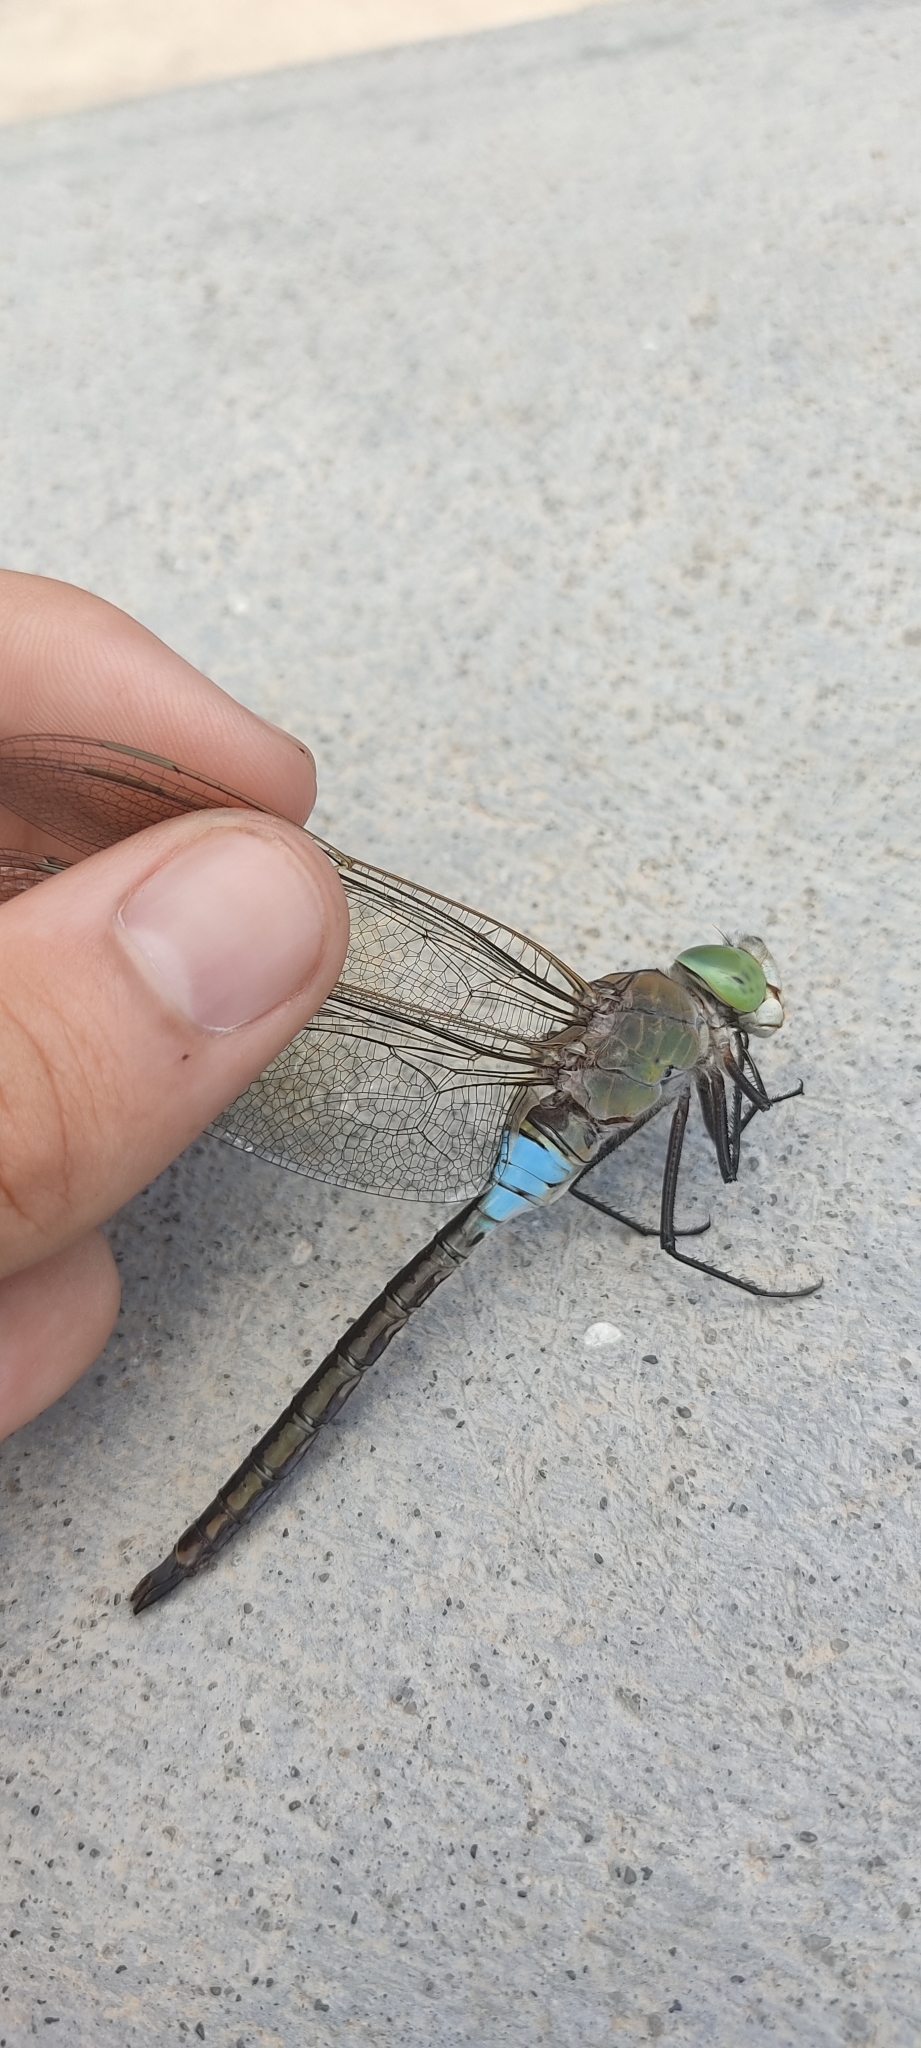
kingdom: Animalia
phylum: Arthropoda
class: Insecta
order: Odonata
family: Aeshnidae
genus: Anax
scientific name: Anax parthenope
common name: Lesser emperor
